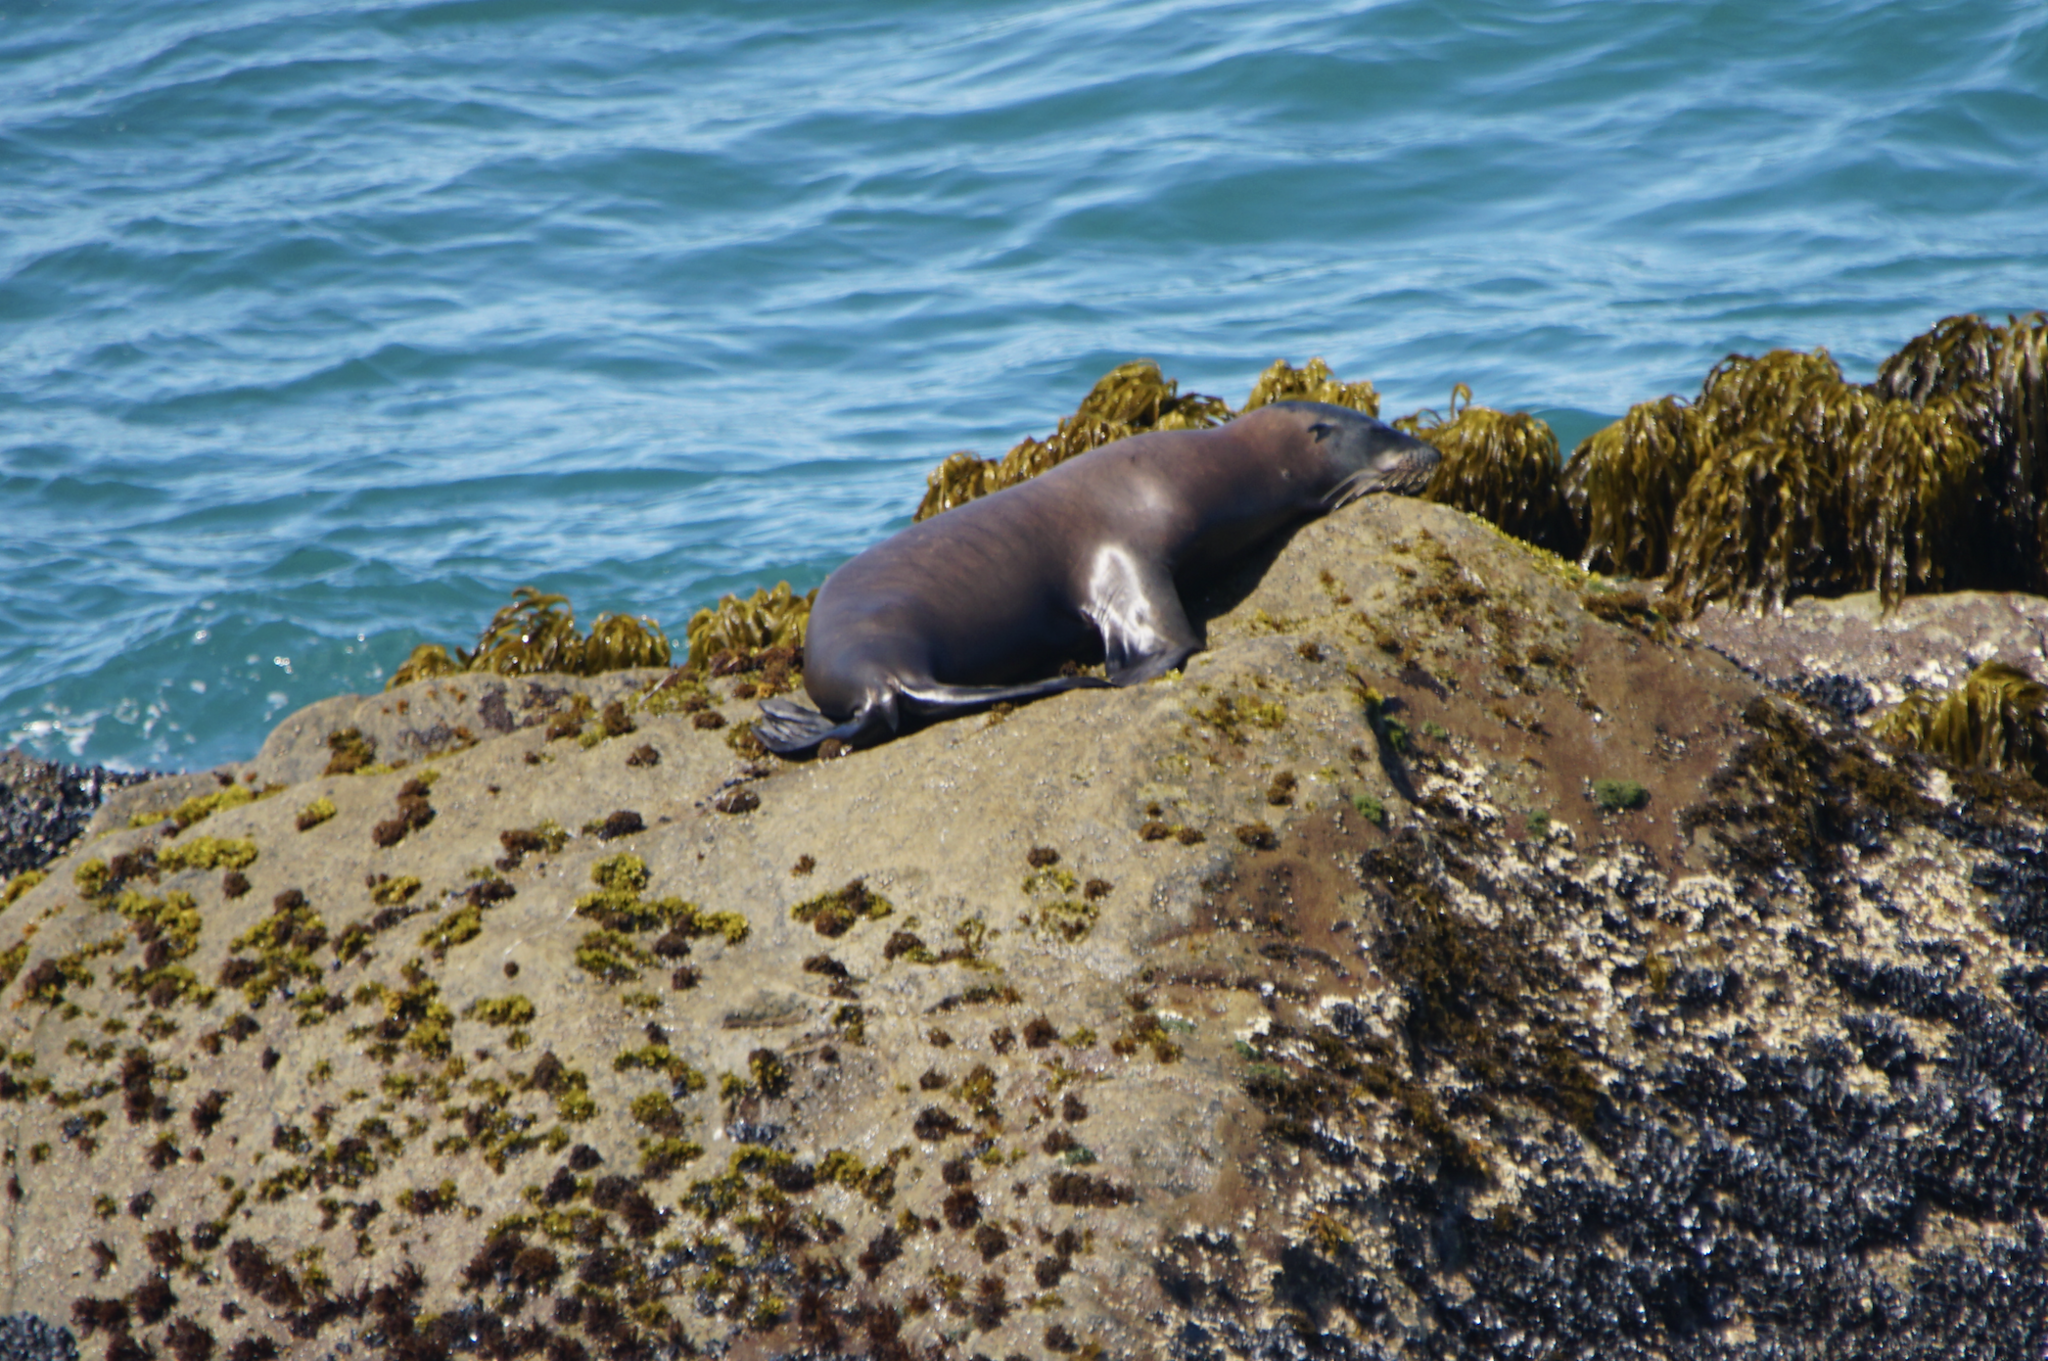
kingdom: Animalia
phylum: Chordata
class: Mammalia
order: Carnivora
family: Otariidae
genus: Zalophus
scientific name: Zalophus californianus
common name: California sea lion
